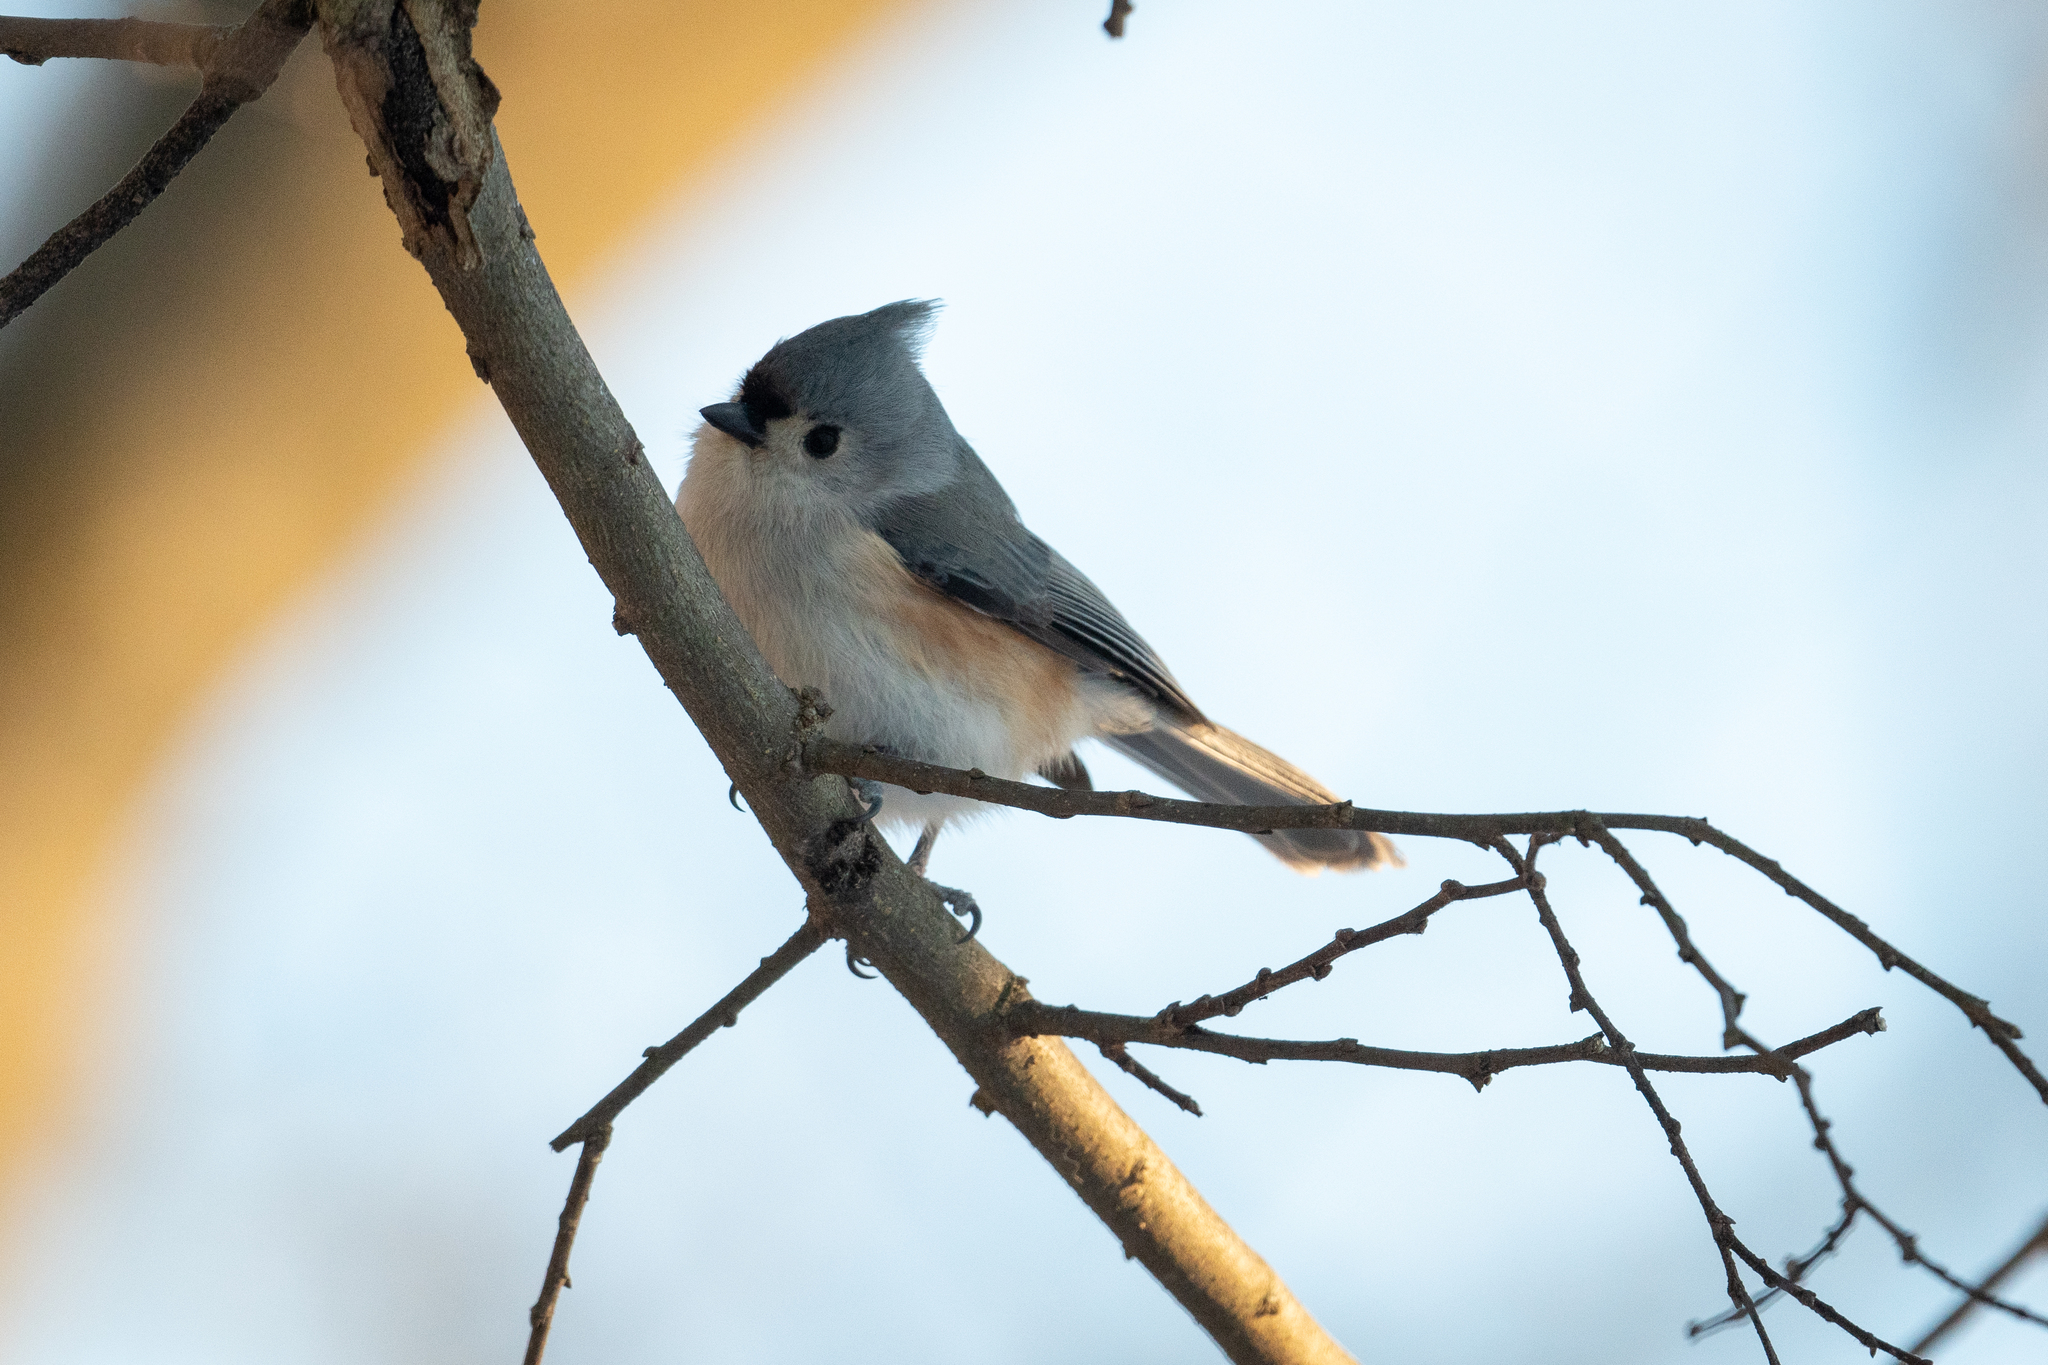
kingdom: Animalia
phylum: Chordata
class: Aves
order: Passeriformes
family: Paridae
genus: Baeolophus
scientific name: Baeolophus bicolor
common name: Tufted titmouse
